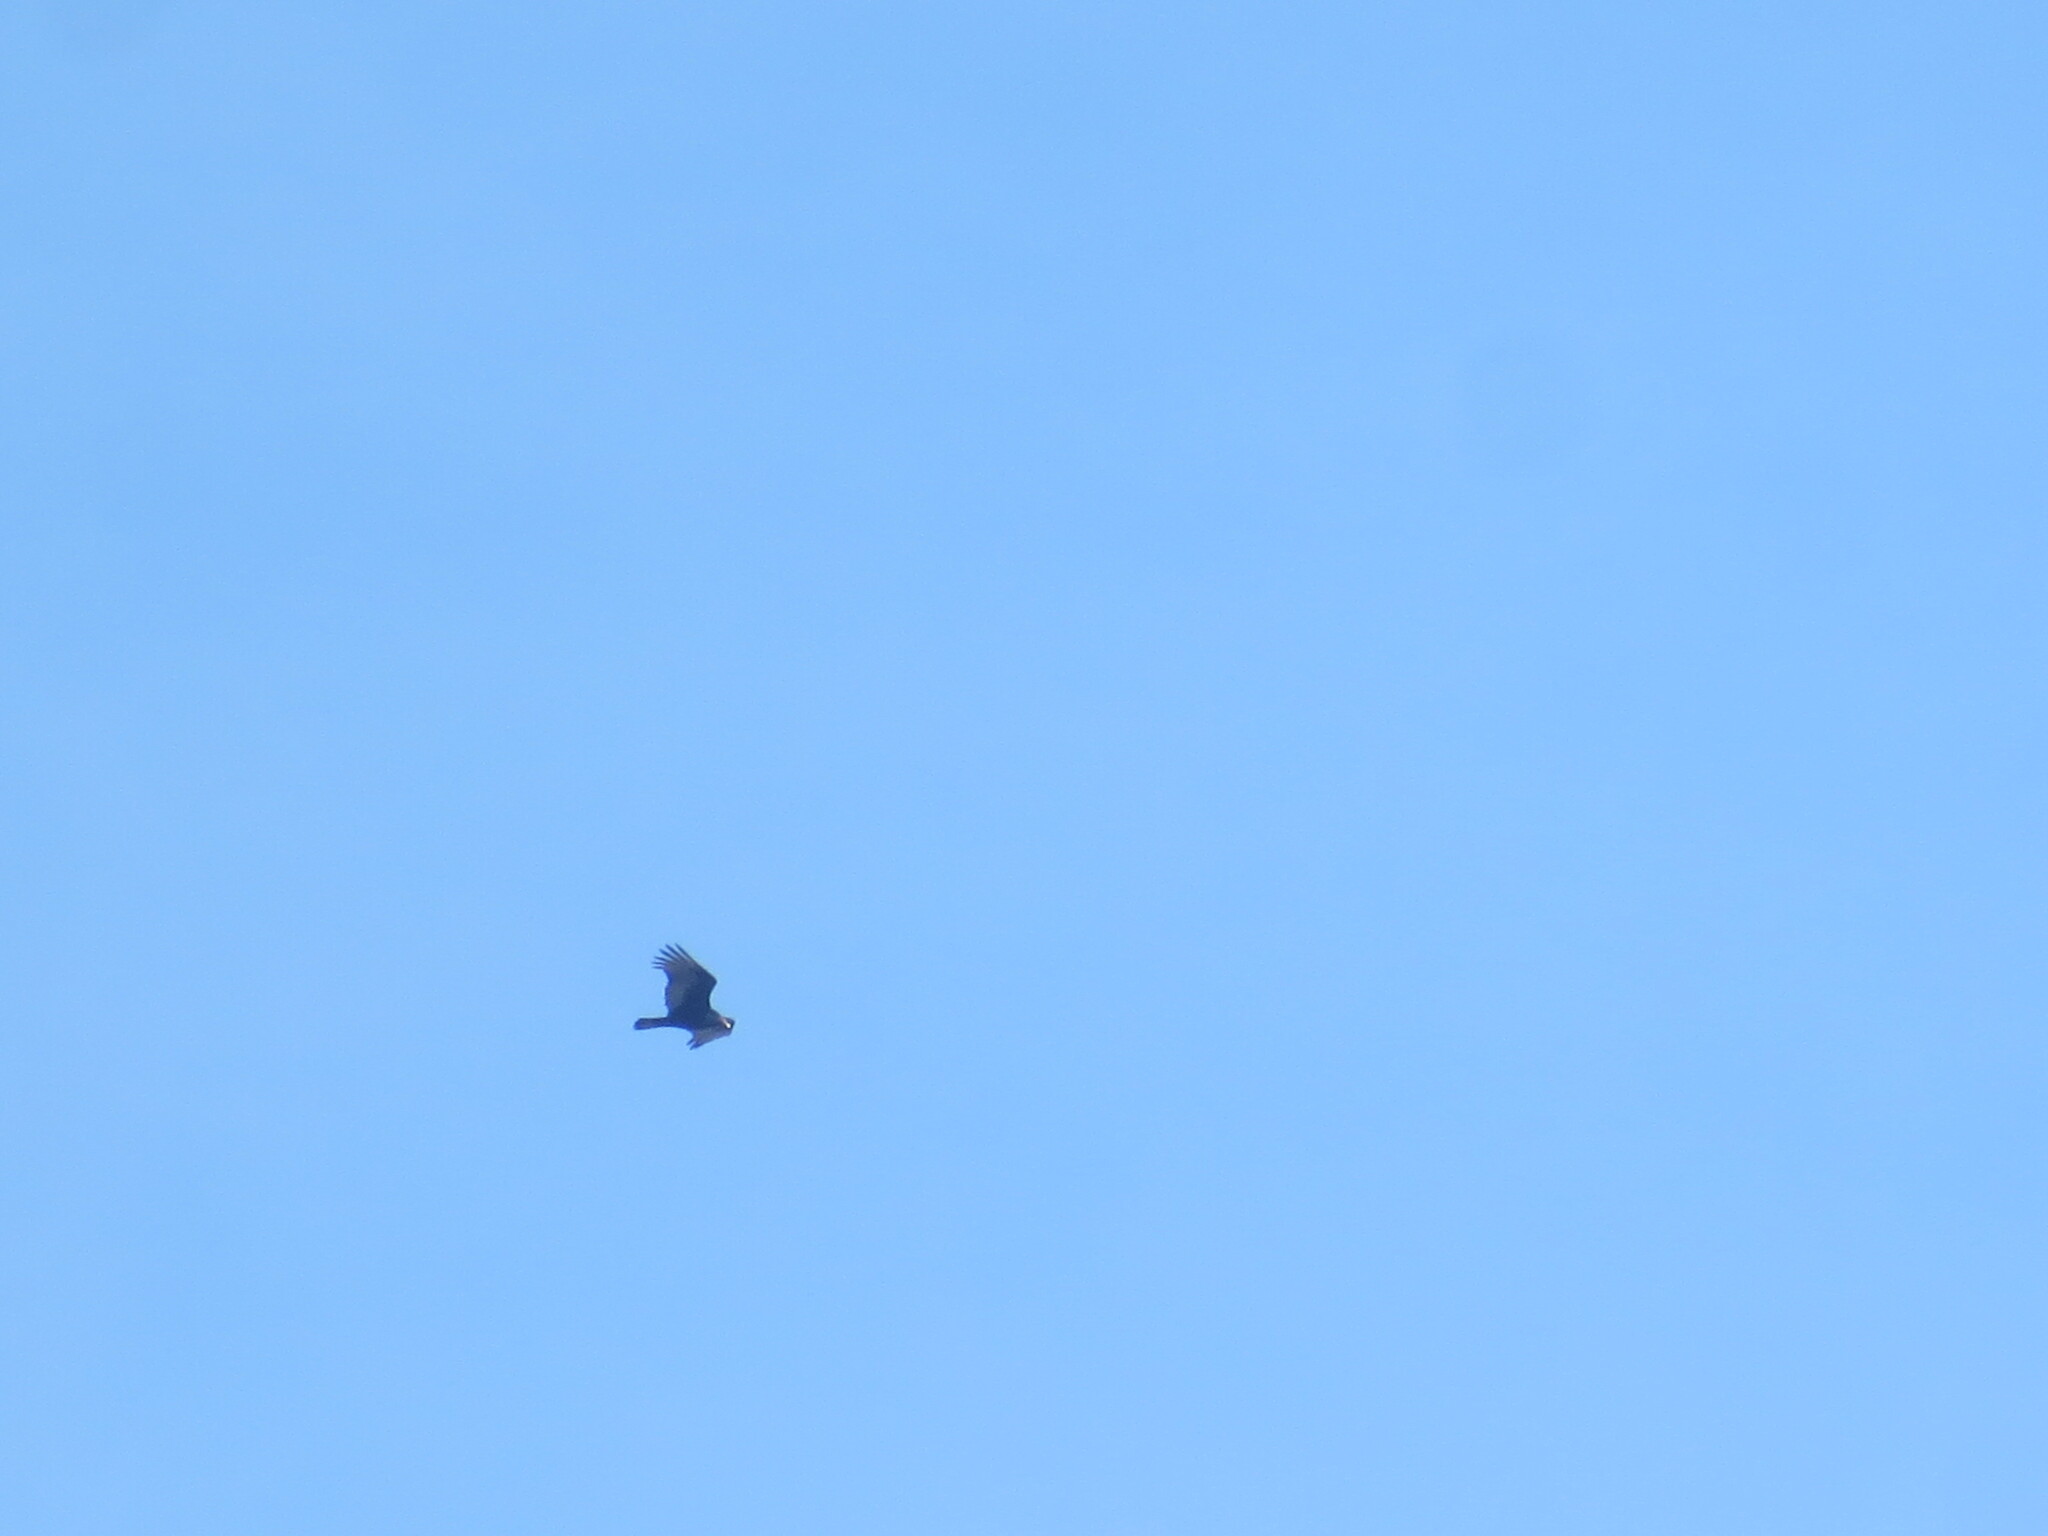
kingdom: Animalia
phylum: Chordata
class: Aves
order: Accipitriformes
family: Cathartidae
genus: Cathartes
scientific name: Cathartes aura
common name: Turkey vulture
